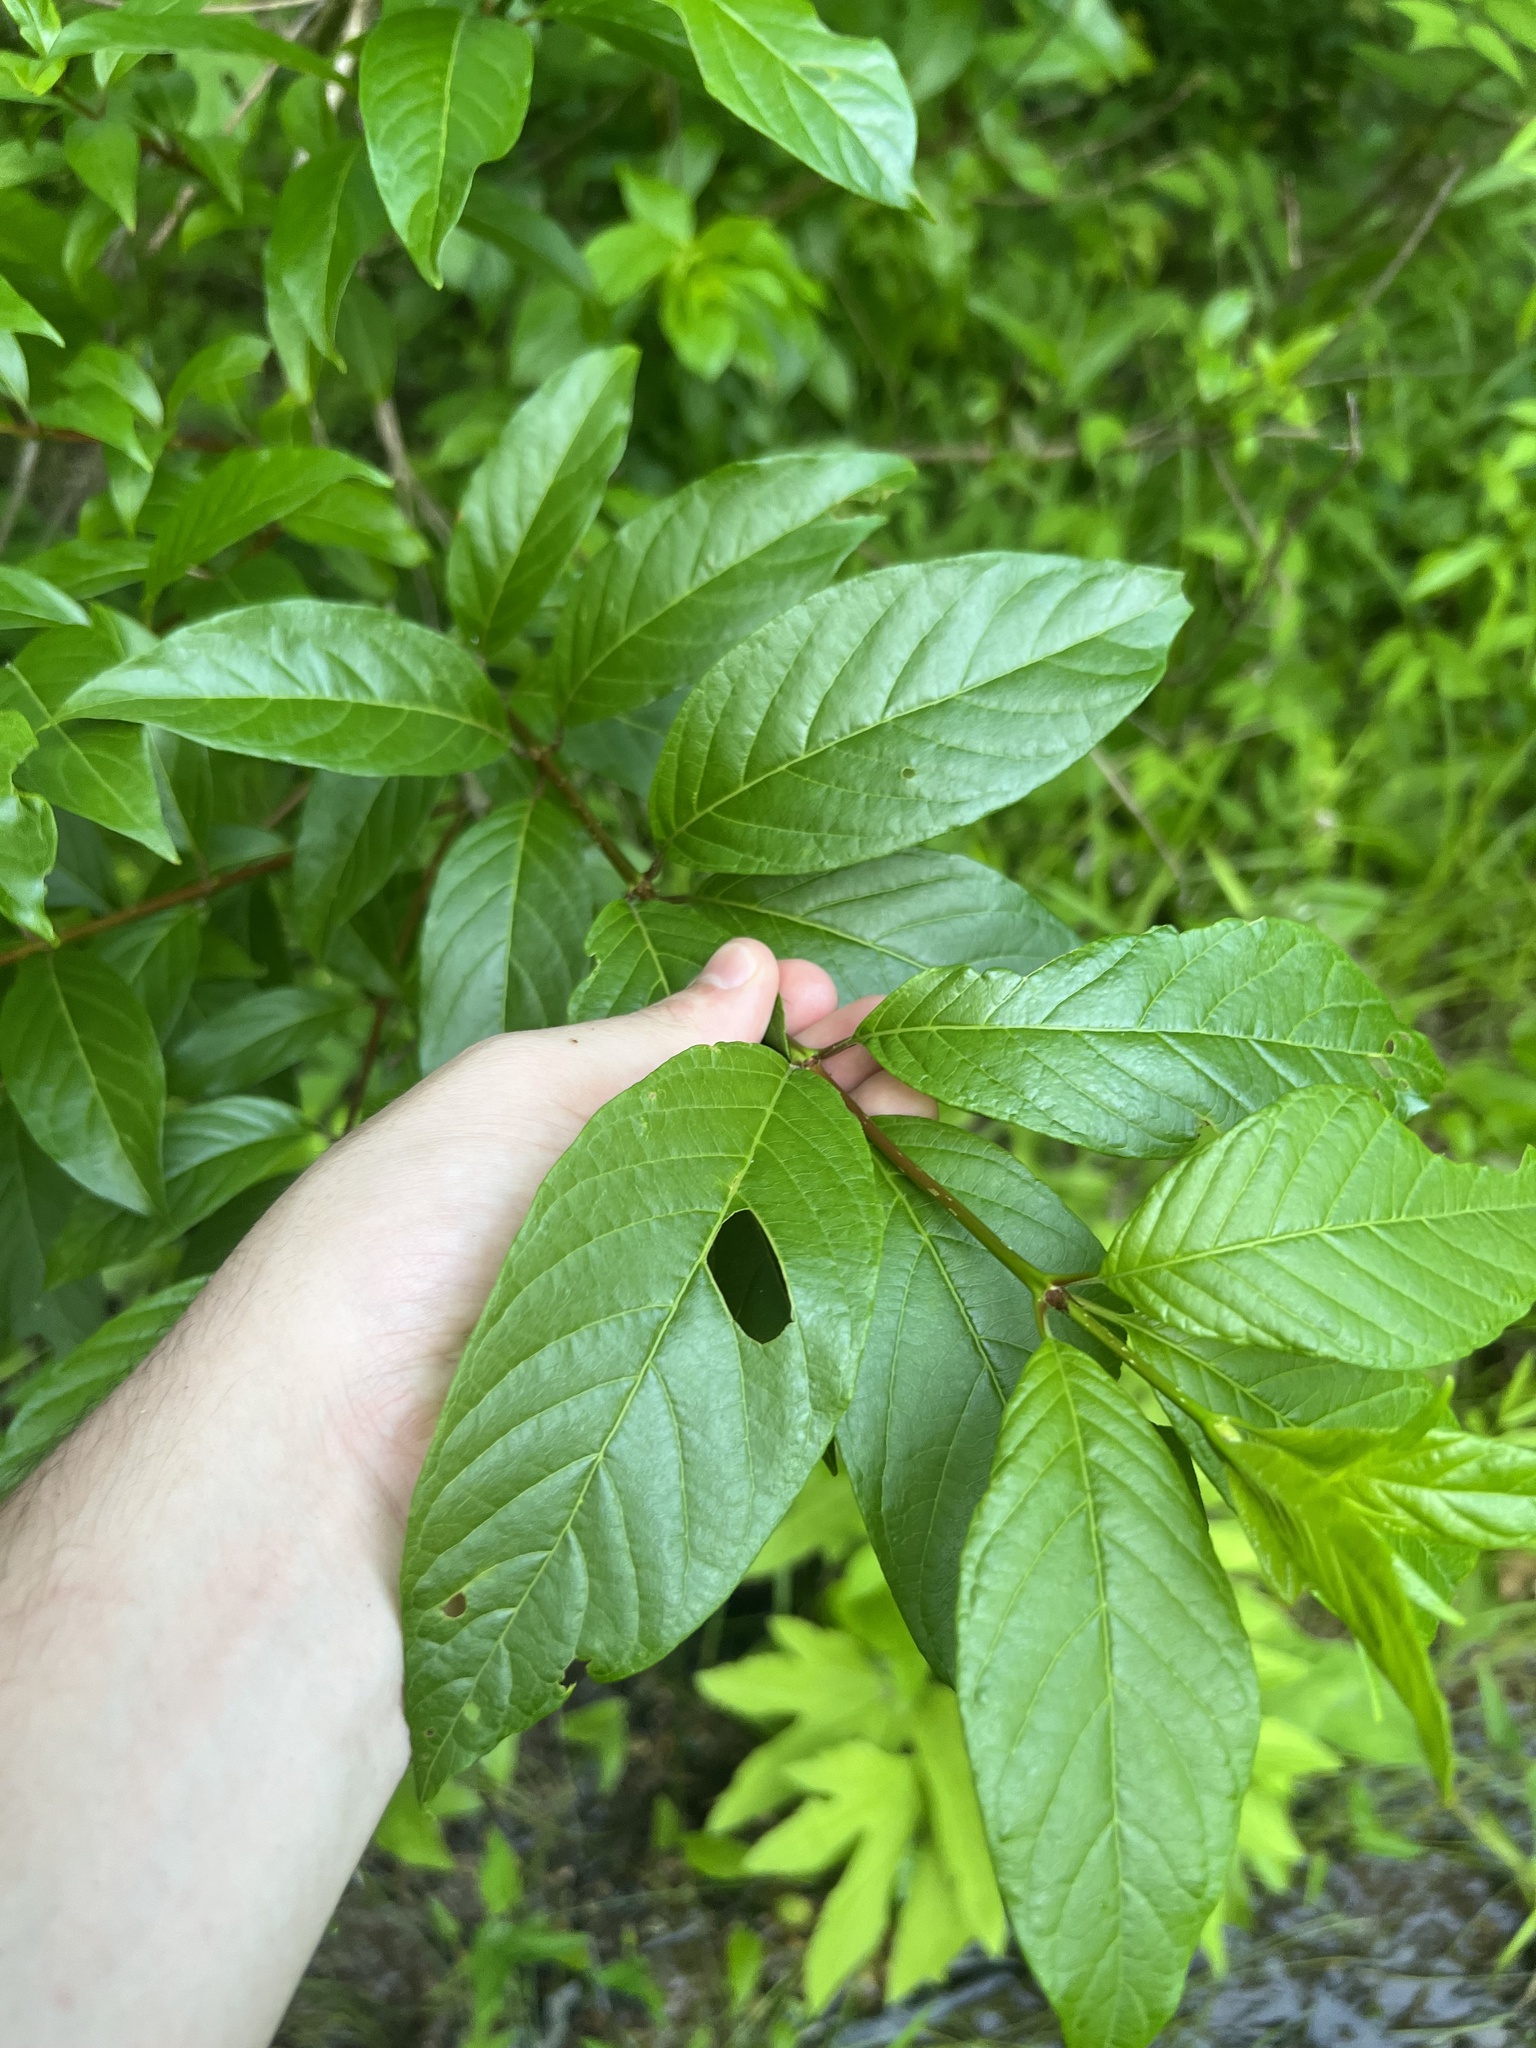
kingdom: Plantae
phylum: Tracheophyta
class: Magnoliopsida
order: Gentianales
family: Rubiaceae
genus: Cephalanthus
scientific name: Cephalanthus occidentalis
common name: Button-willow
